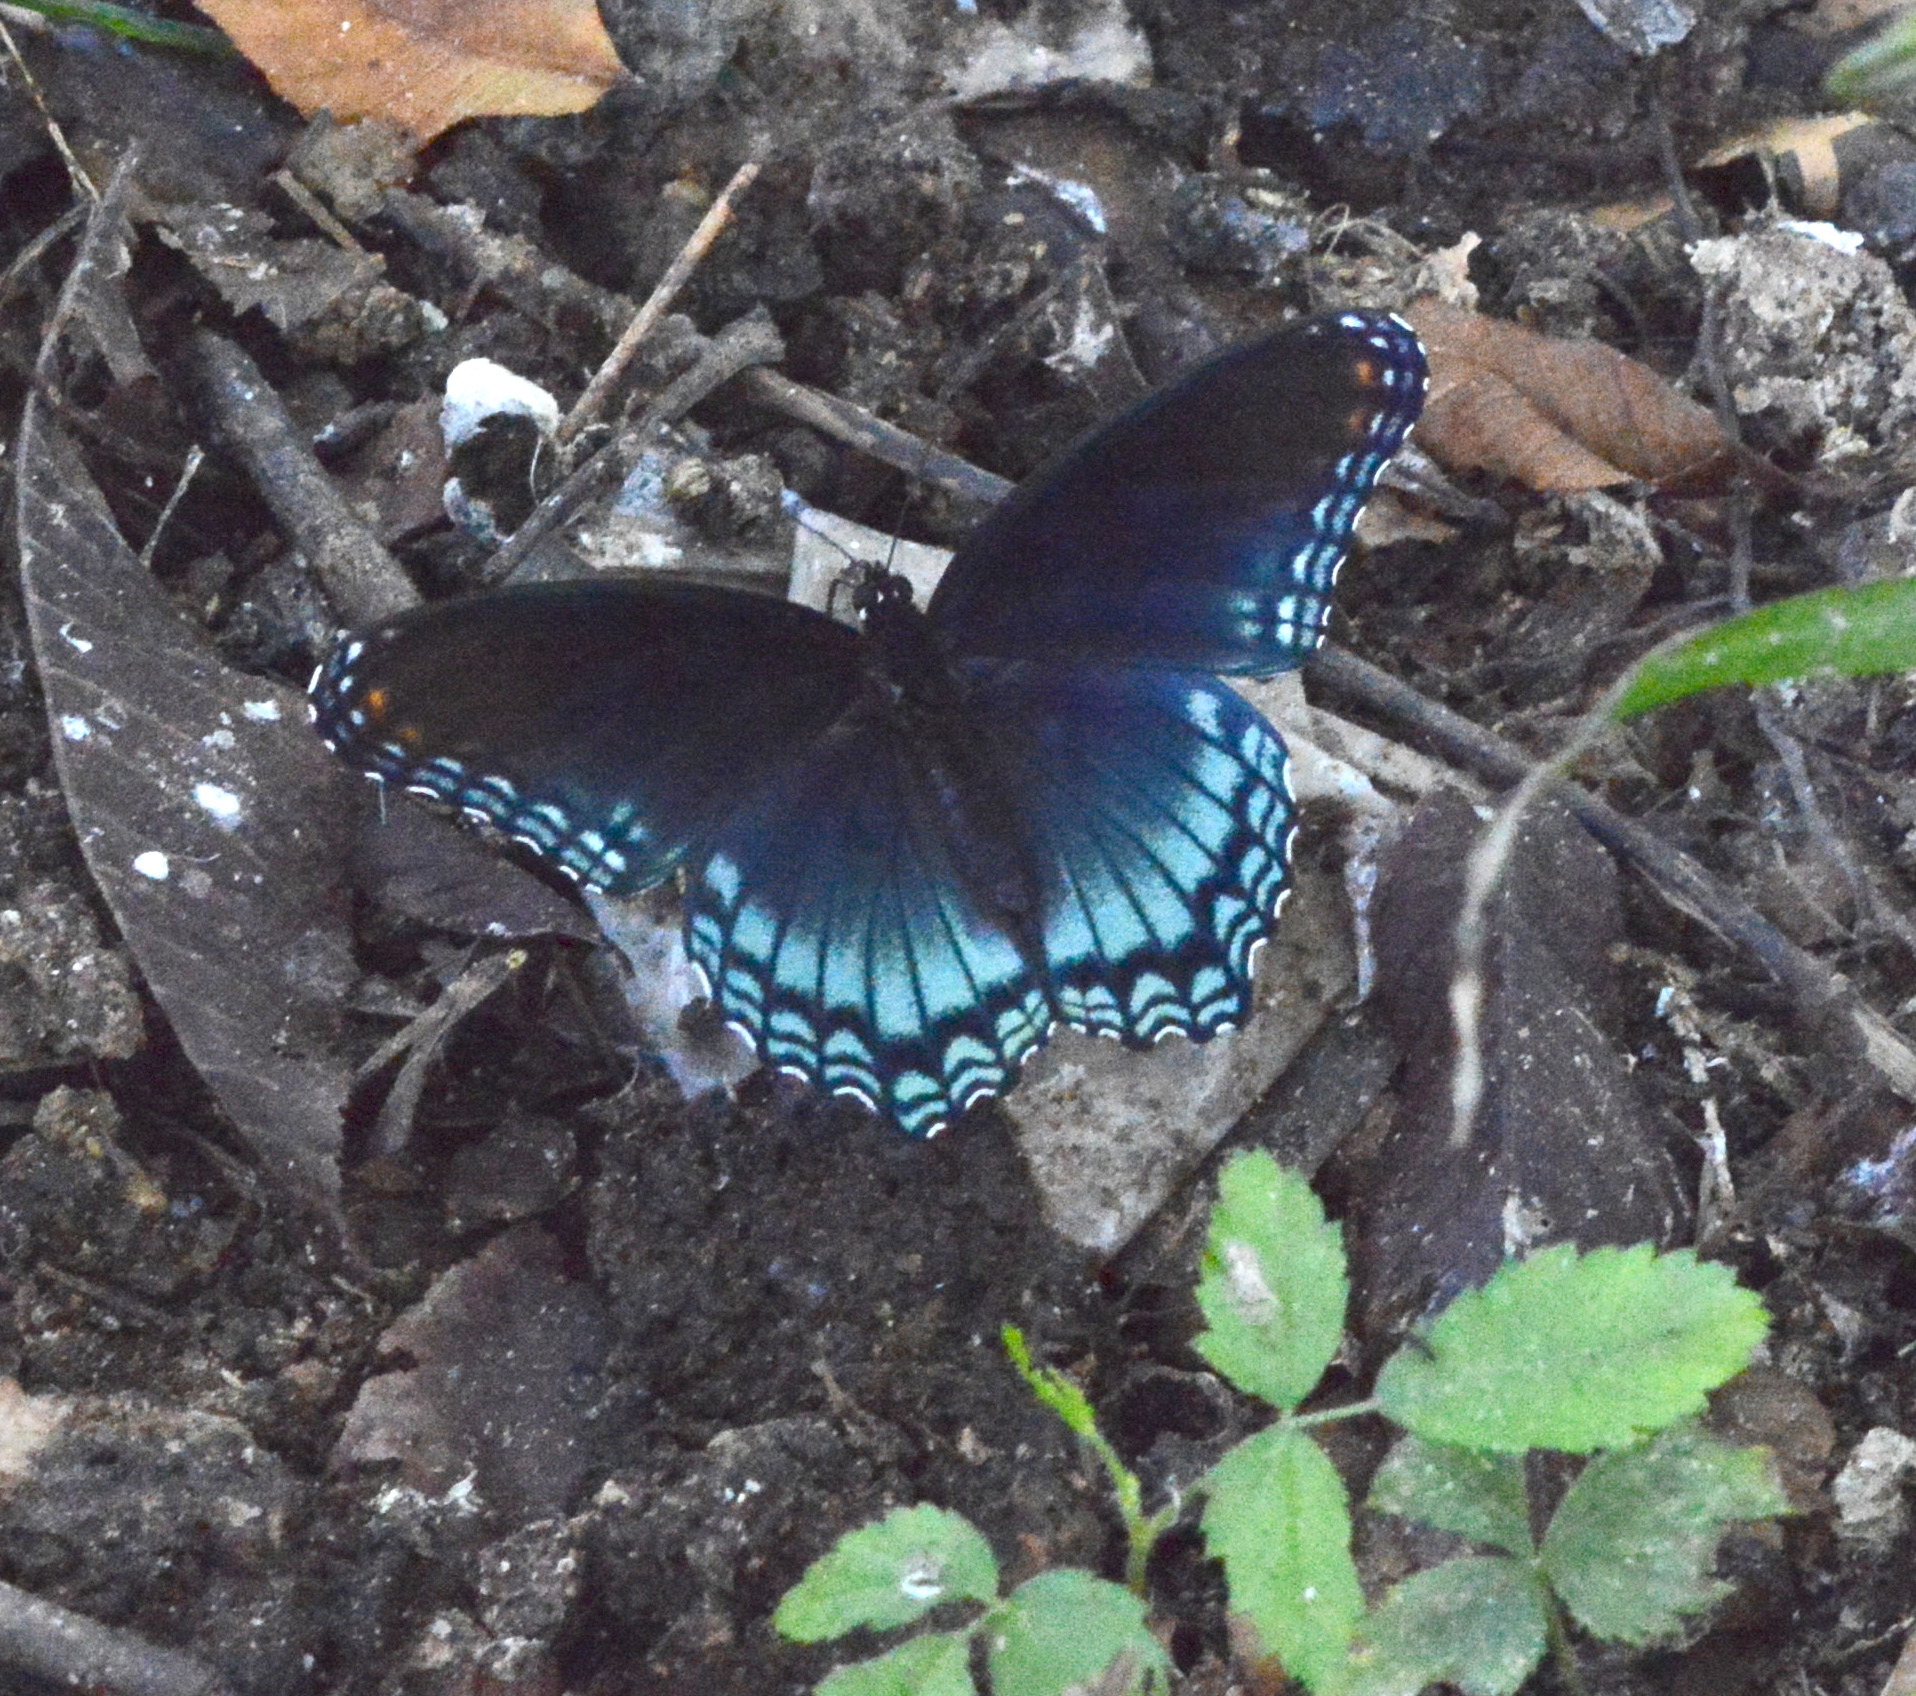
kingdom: Animalia
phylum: Arthropoda
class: Insecta
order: Lepidoptera
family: Nymphalidae
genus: Limenitis
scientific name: Limenitis arthemis
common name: Red-spotted admiral
